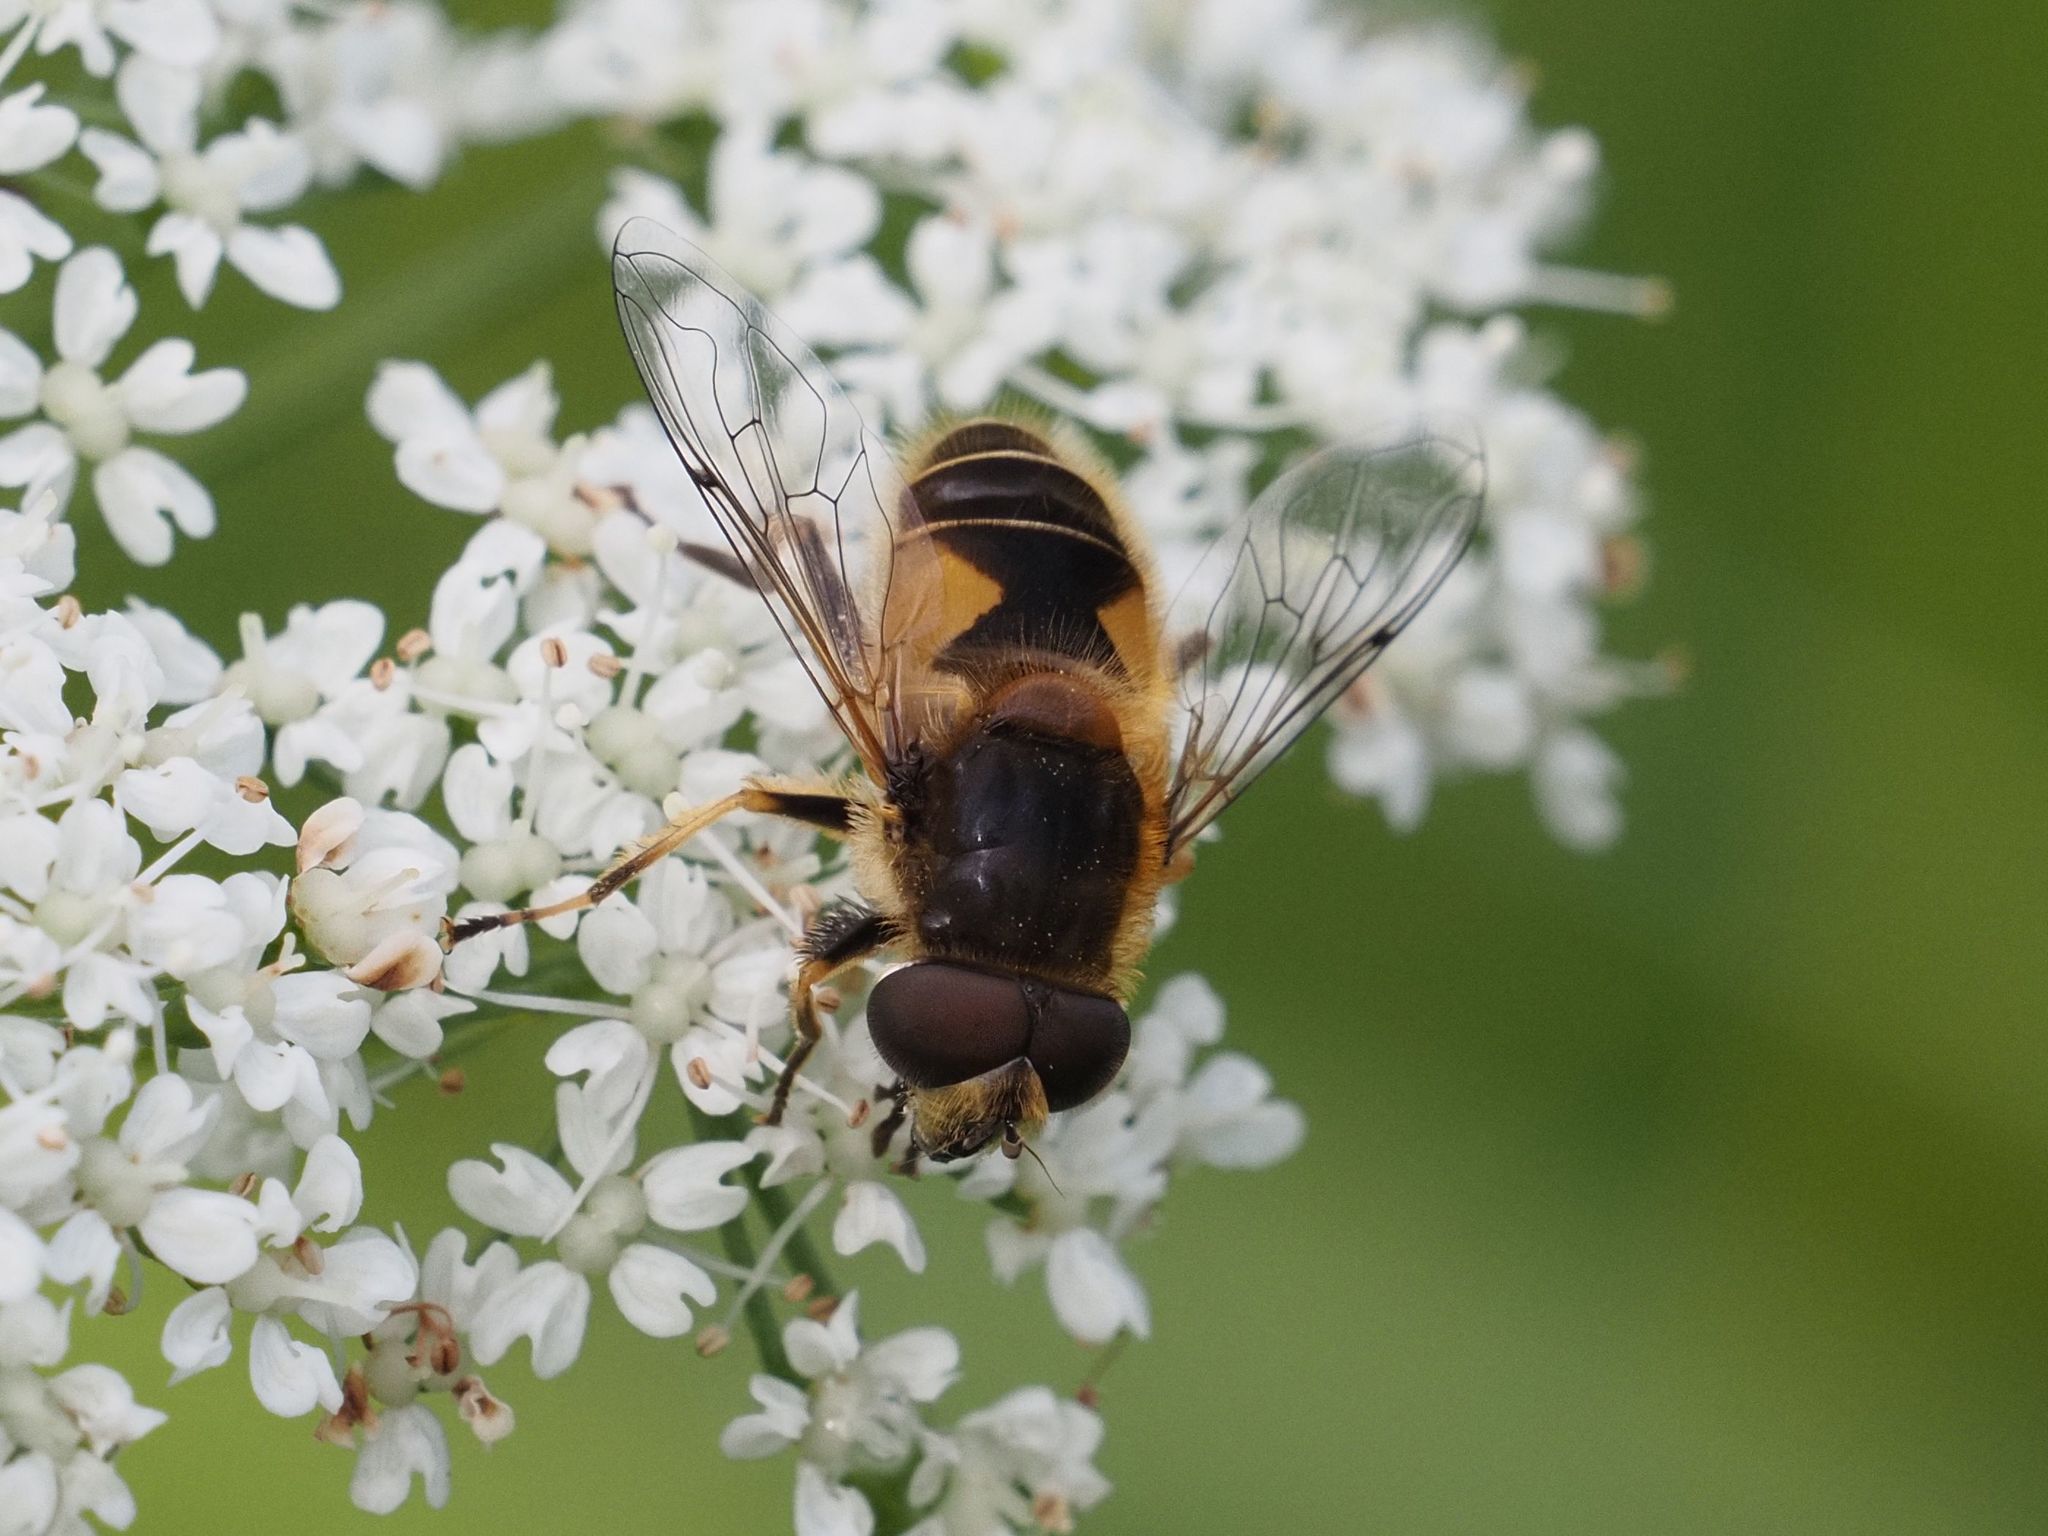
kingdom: Animalia
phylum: Arthropoda
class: Insecta
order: Diptera
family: Syrphidae
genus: Eristalis
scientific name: Eristalis jugorum
